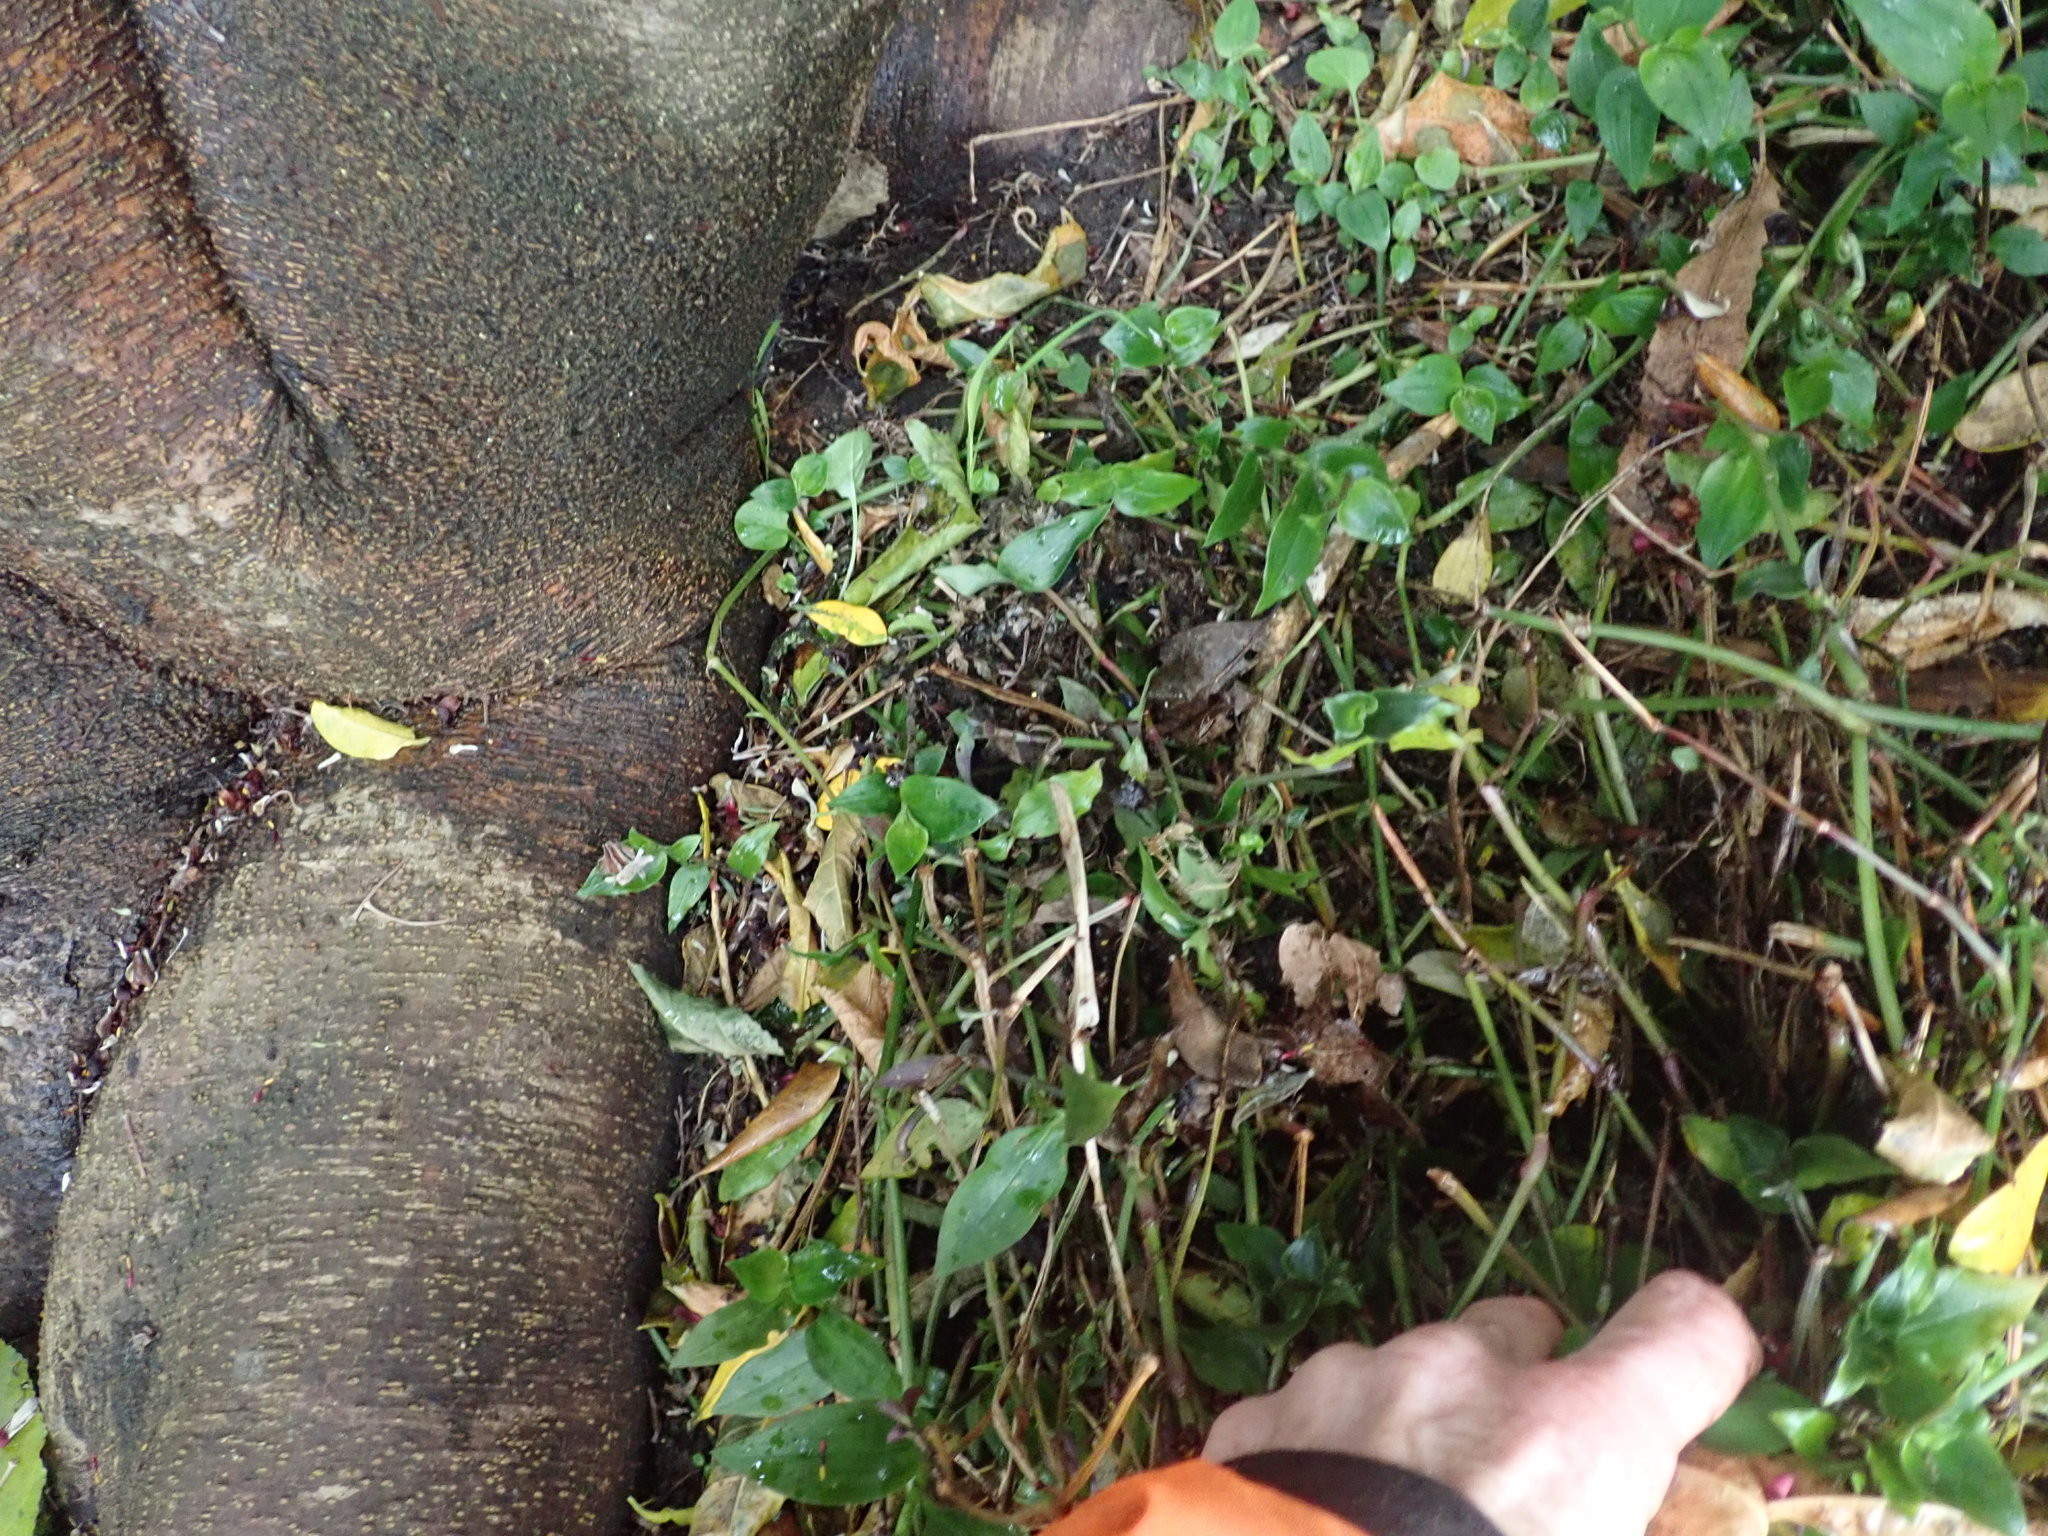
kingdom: Plantae
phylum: Tracheophyta
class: Liliopsida
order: Commelinales
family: Commelinaceae
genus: Tradescantia
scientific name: Tradescantia fluminensis
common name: Wandering-jew
